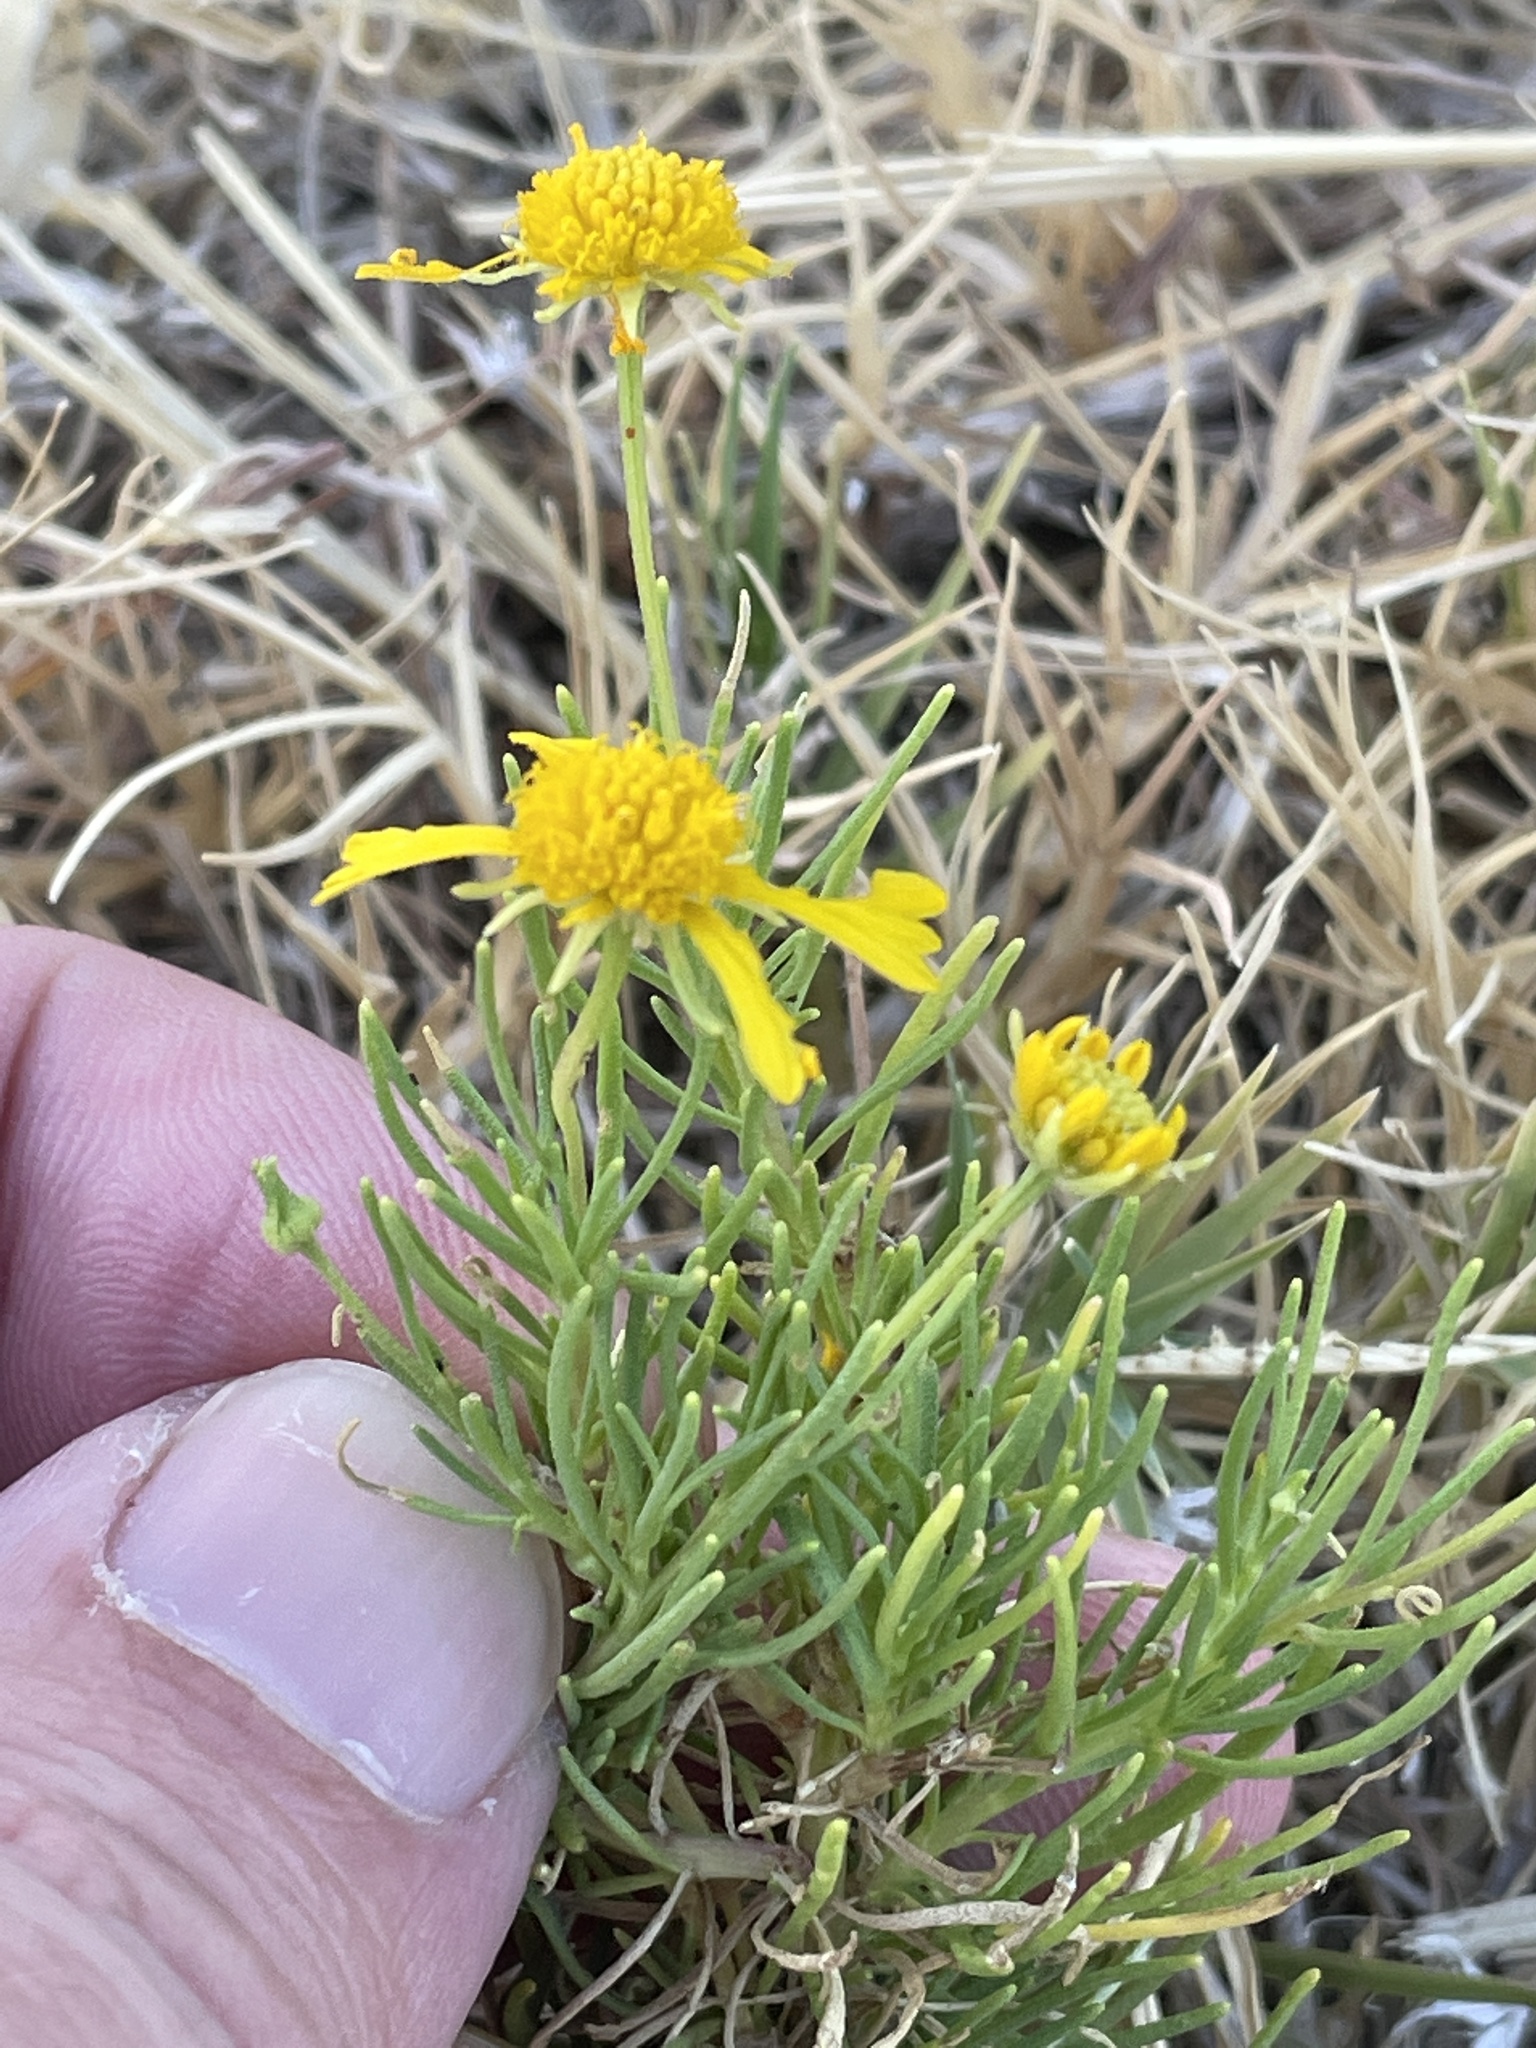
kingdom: Plantae
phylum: Tracheophyta
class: Magnoliopsida
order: Asterales
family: Asteraceae
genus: Helenium
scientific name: Helenium amarum
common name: Bitter sneezeweed
